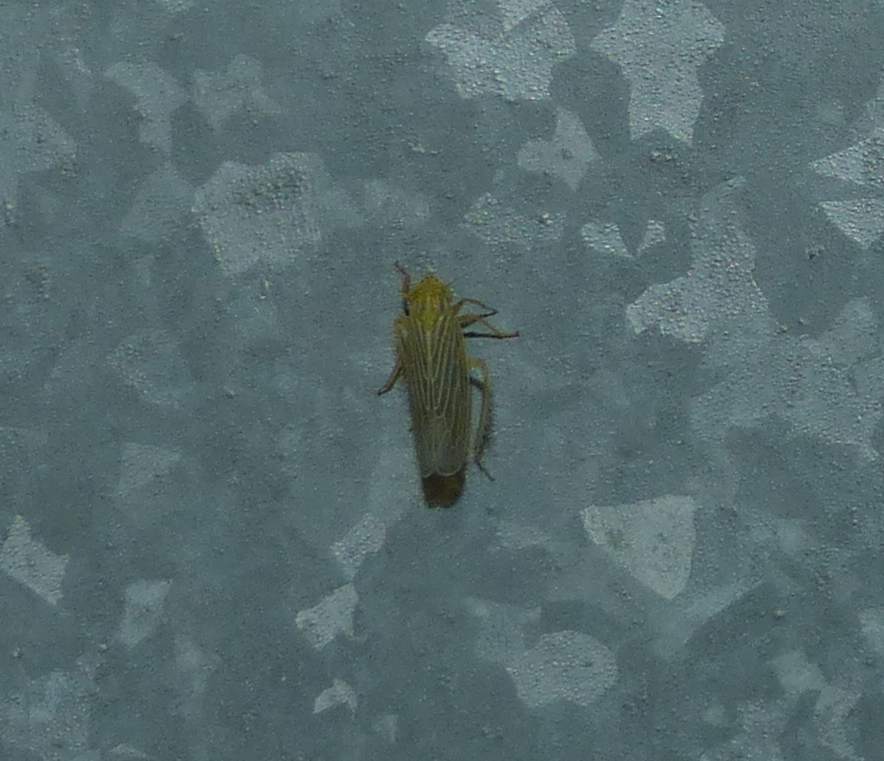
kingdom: Animalia
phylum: Arthropoda
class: Insecta
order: Hemiptera
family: Cicadellidae
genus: Graminella
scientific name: Graminella fitchii
